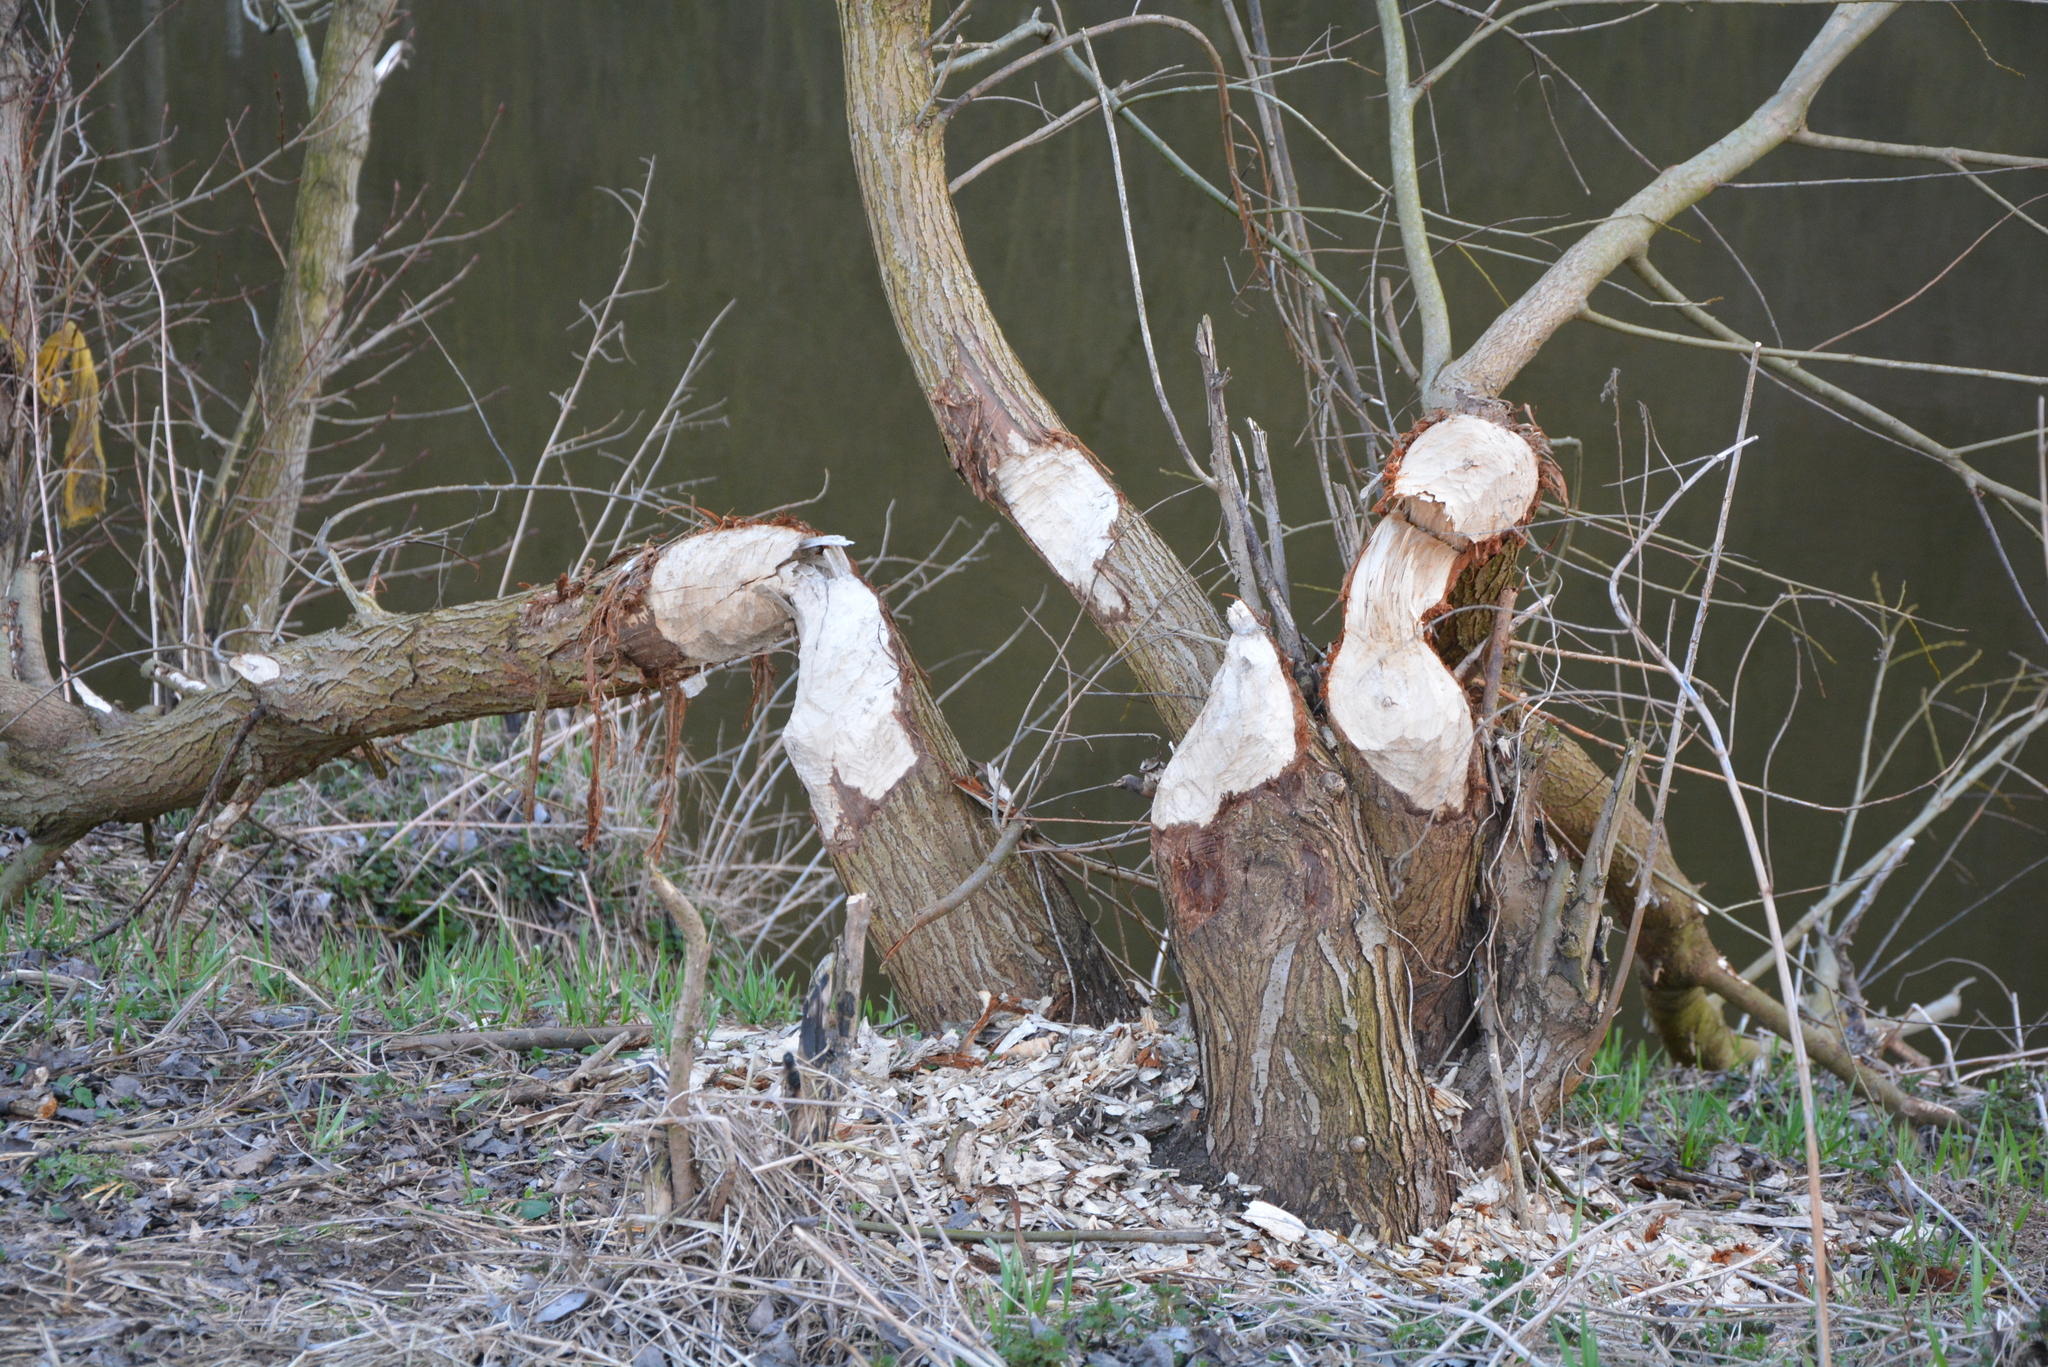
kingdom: Animalia
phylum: Chordata
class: Mammalia
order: Rodentia
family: Castoridae
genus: Castor
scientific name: Castor fiber
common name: Eurasian beaver
